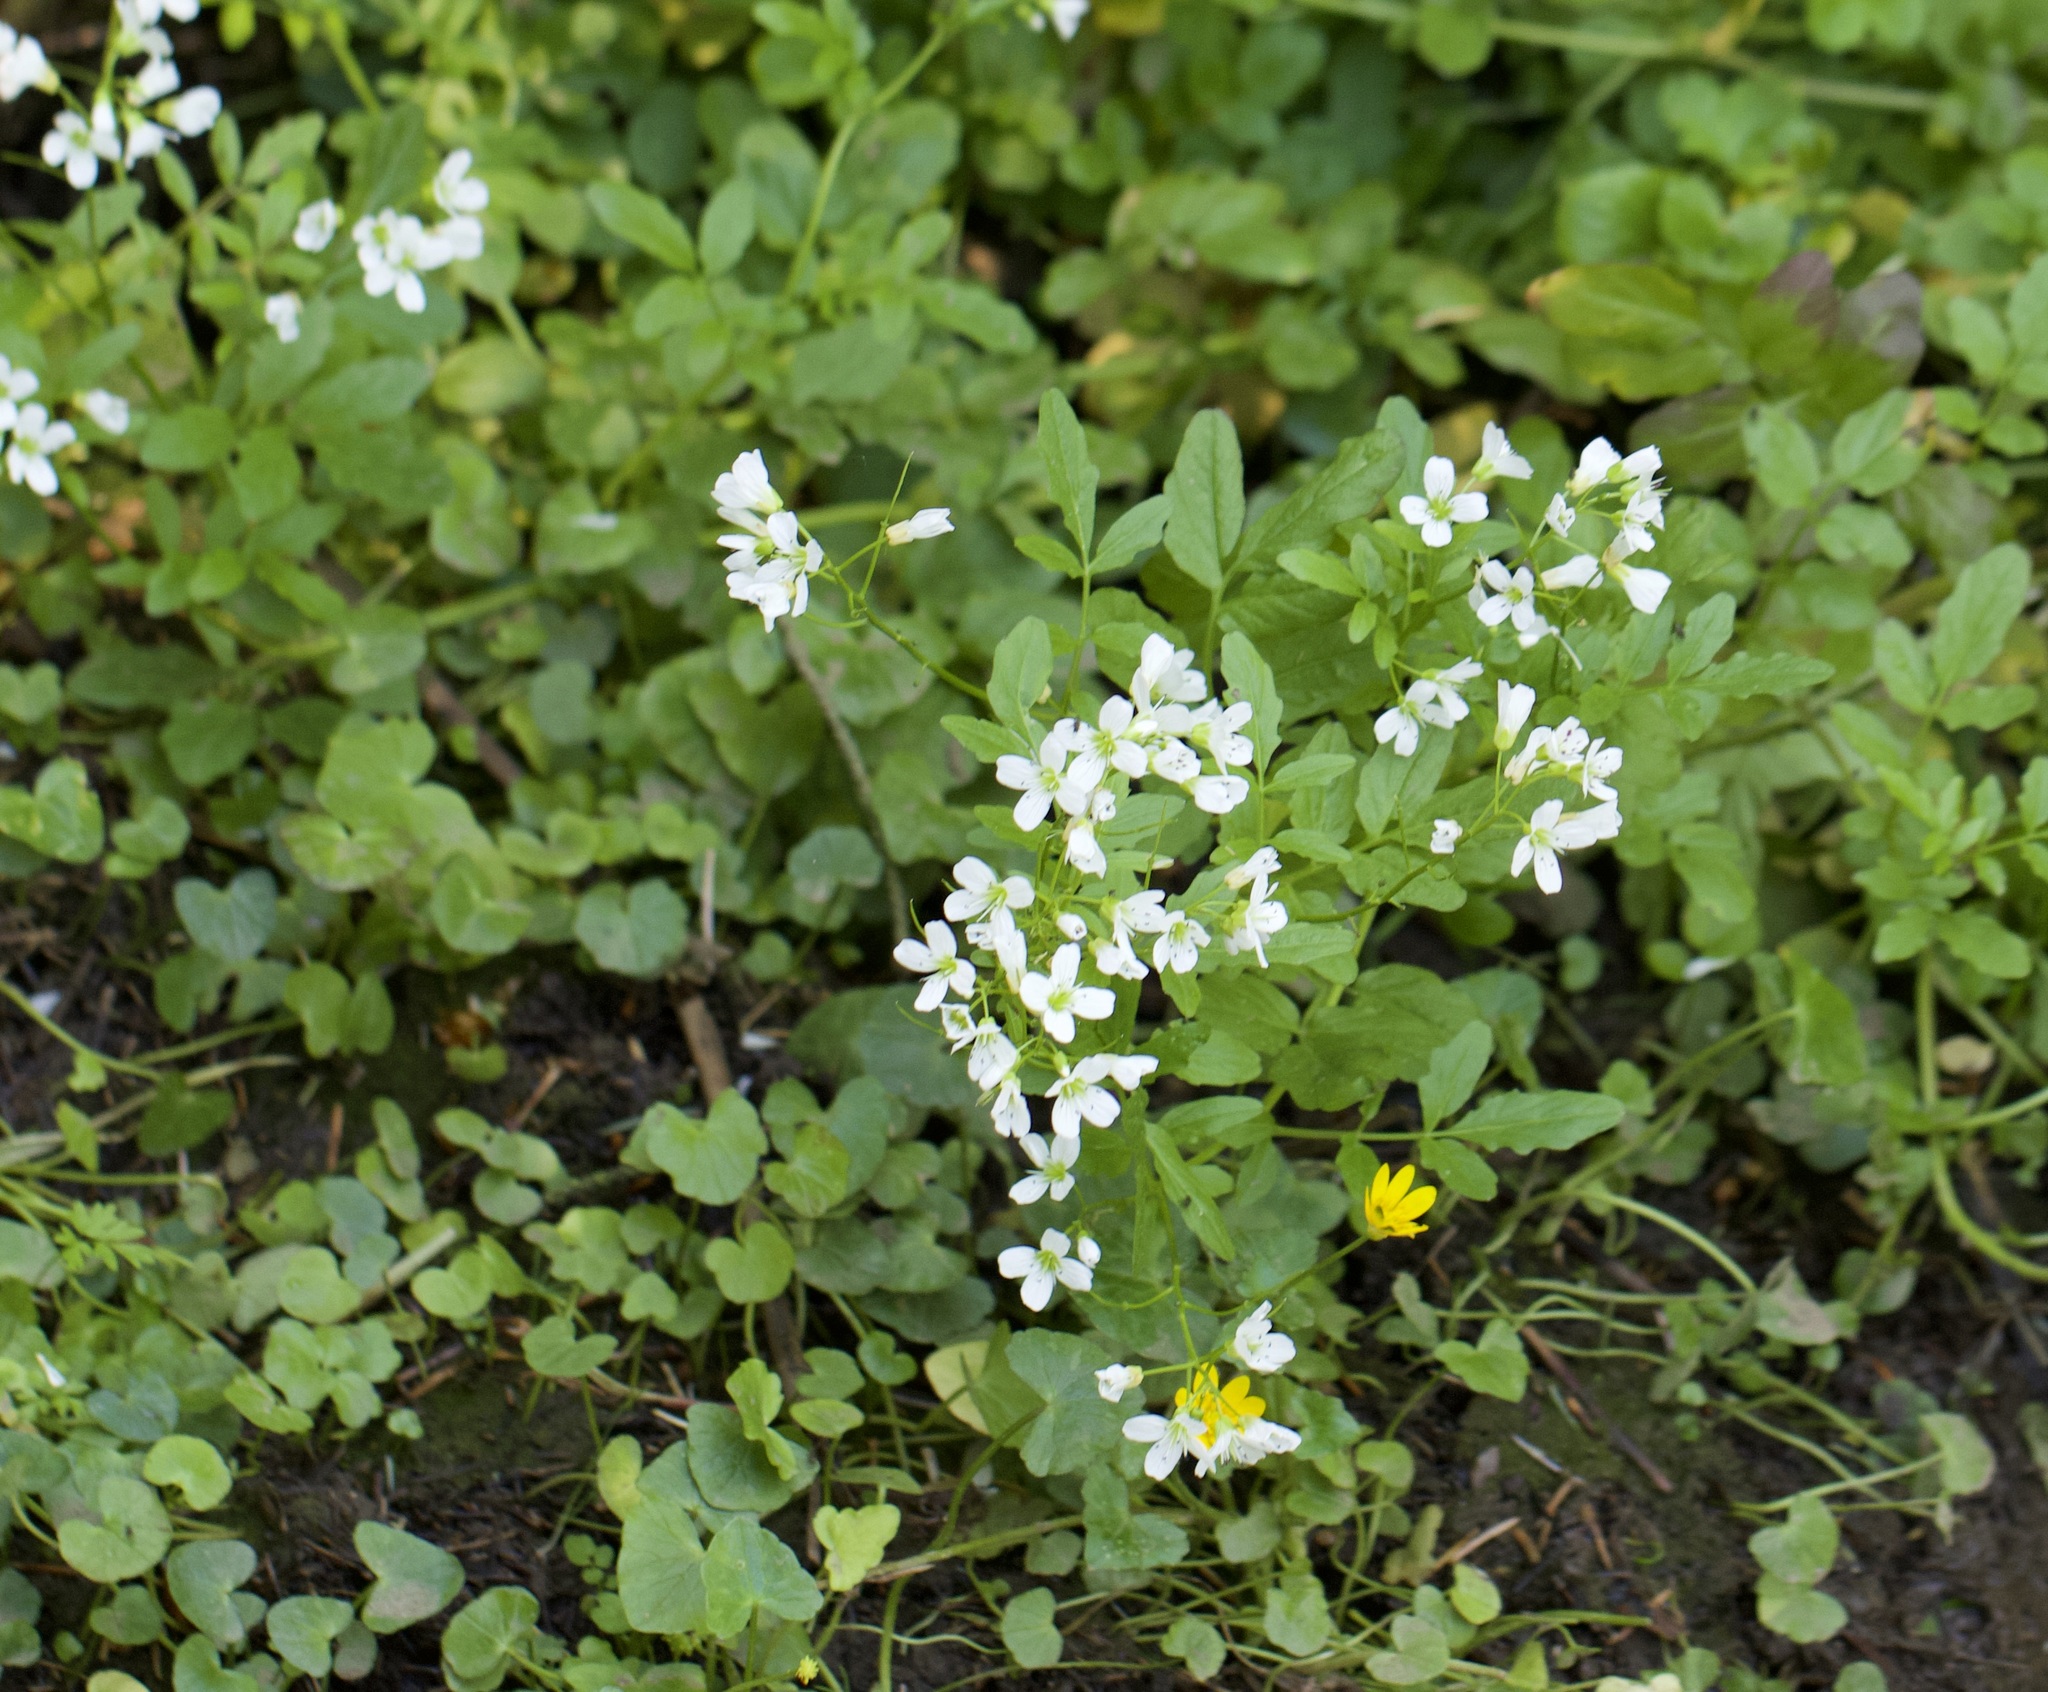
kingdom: Plantae
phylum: Tracheophyta
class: Magnoliopsida
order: Brassicales
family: Brassicaceae
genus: Cardamine
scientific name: Cardamine amara
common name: Large bitter-cress
